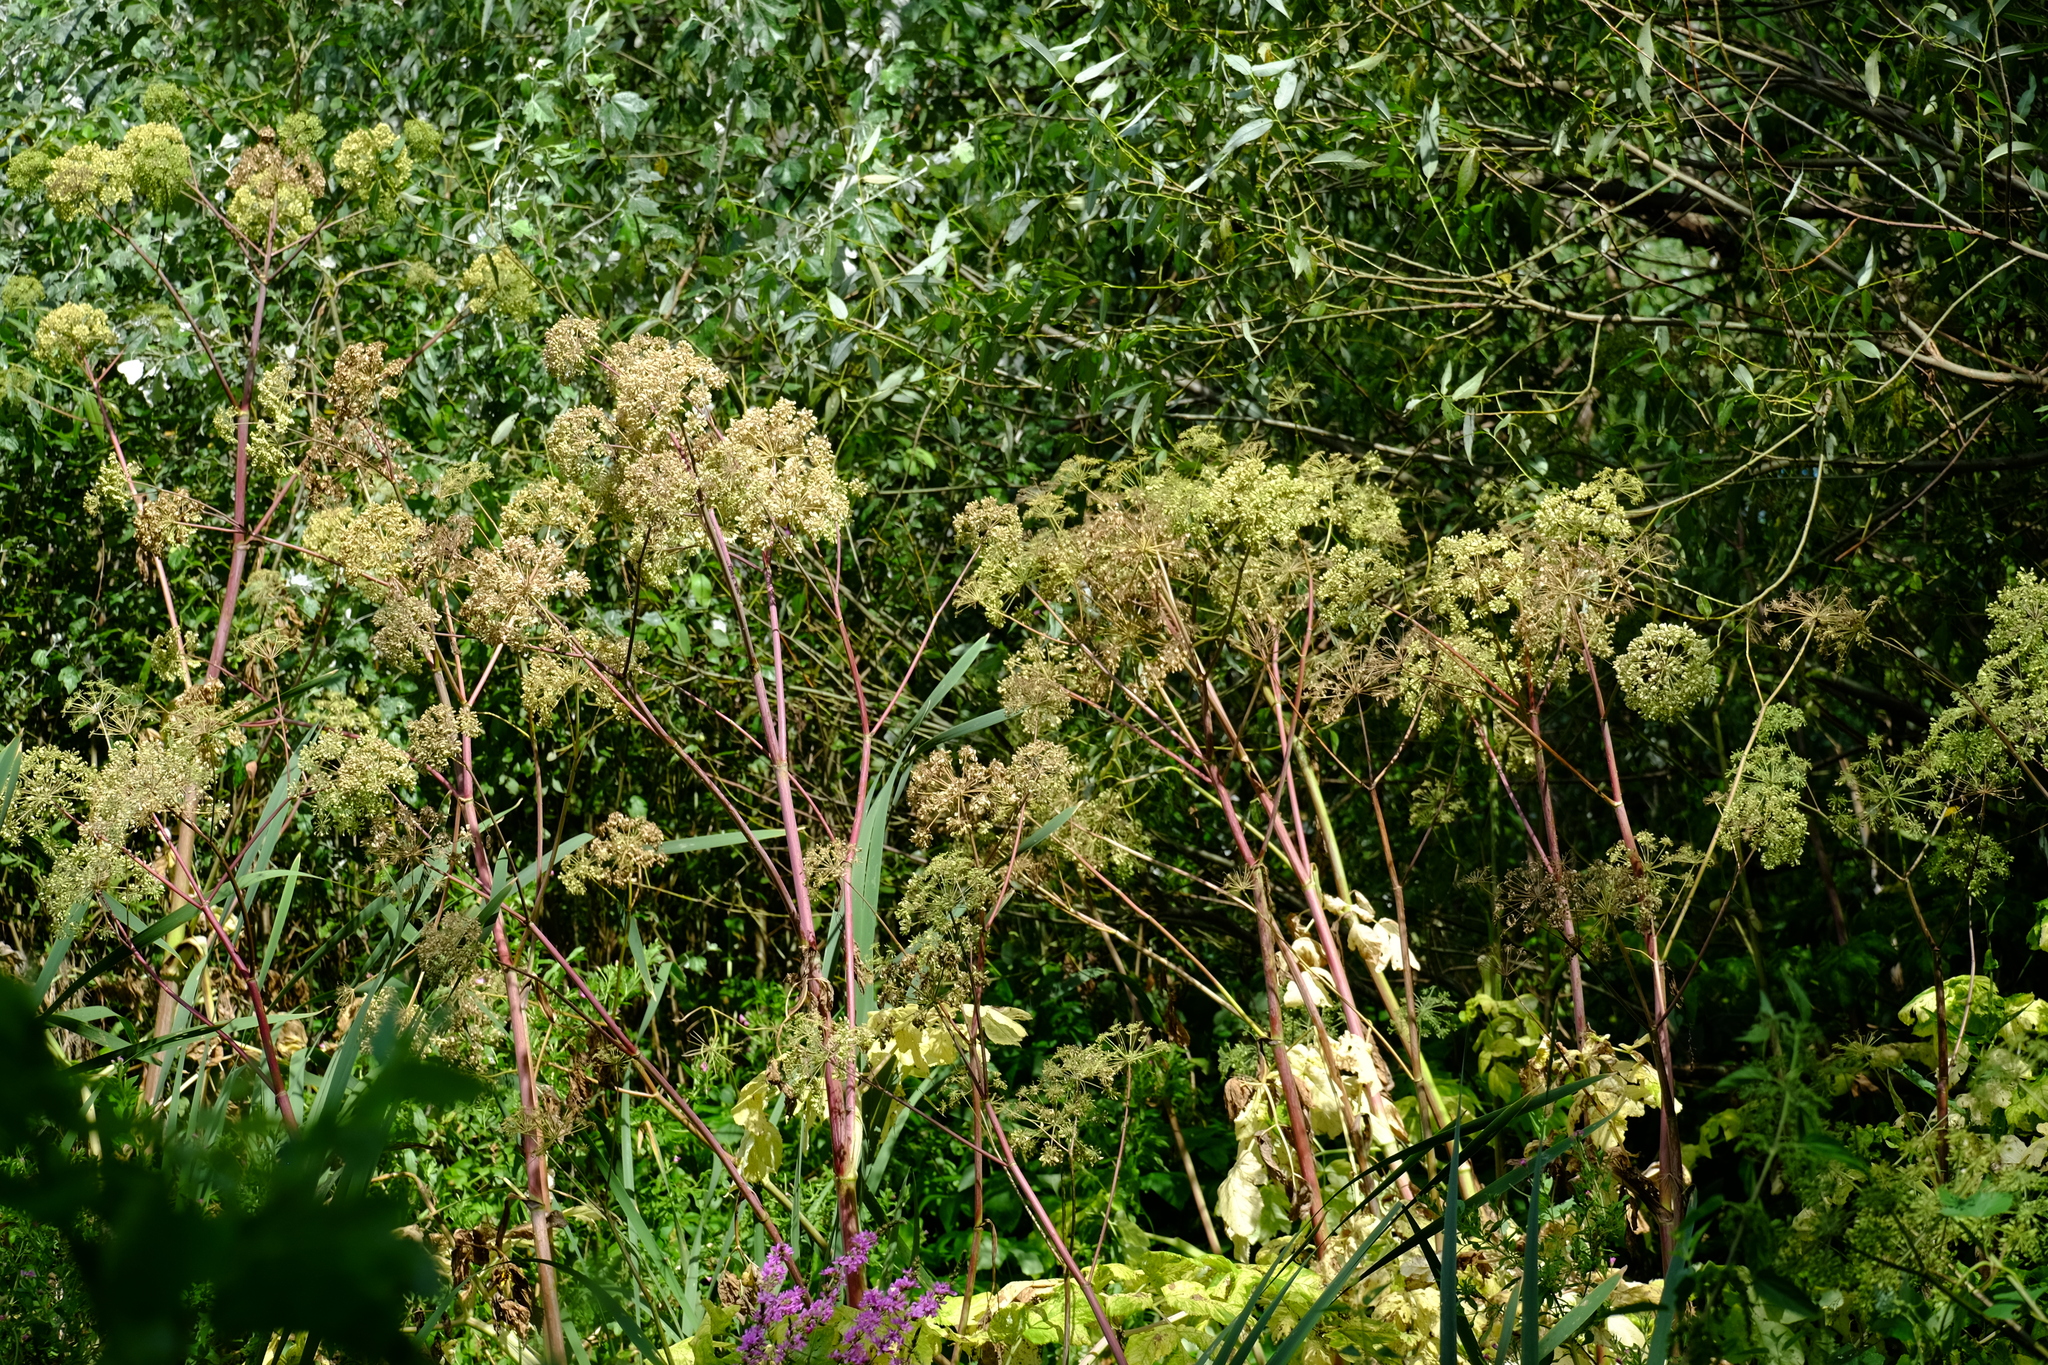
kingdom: Plantae
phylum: Tracheophyta
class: Magnoliopsida
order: Apiales
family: Apiaceae
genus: Angelica
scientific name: Angelica archangelica
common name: Garden angelica
